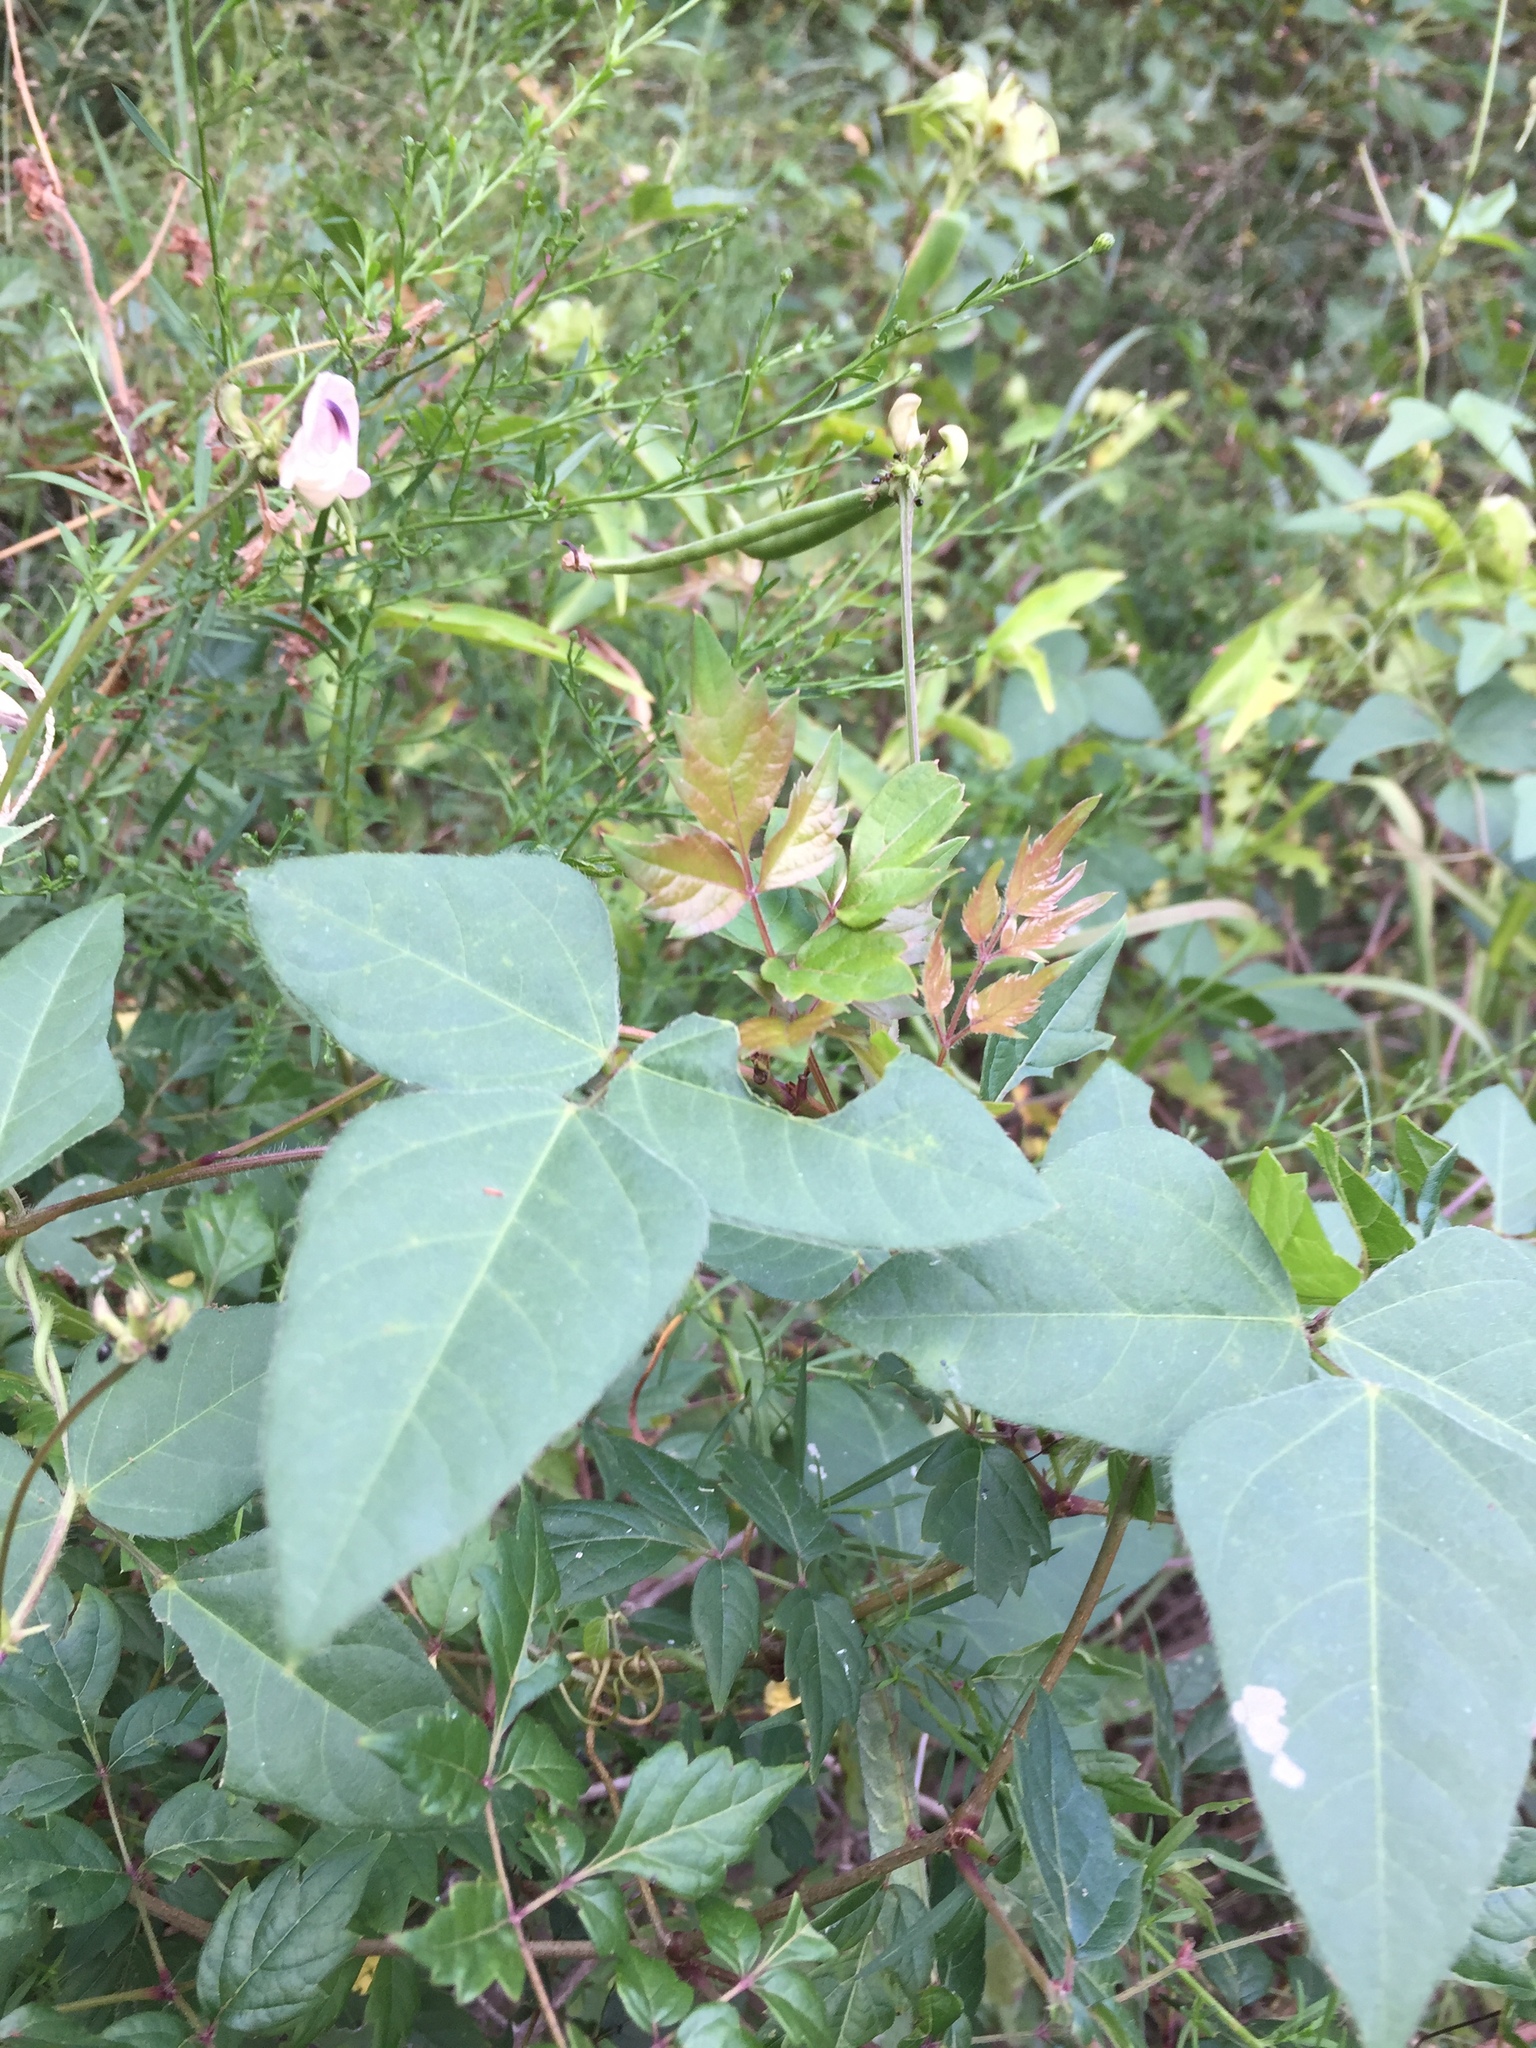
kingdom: Plantae
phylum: Tracheophyta
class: Magnoliopsida
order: Fabales
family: Fabaceae
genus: Strophostyles
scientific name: Strophostyles helvola
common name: Trailing wild bean
